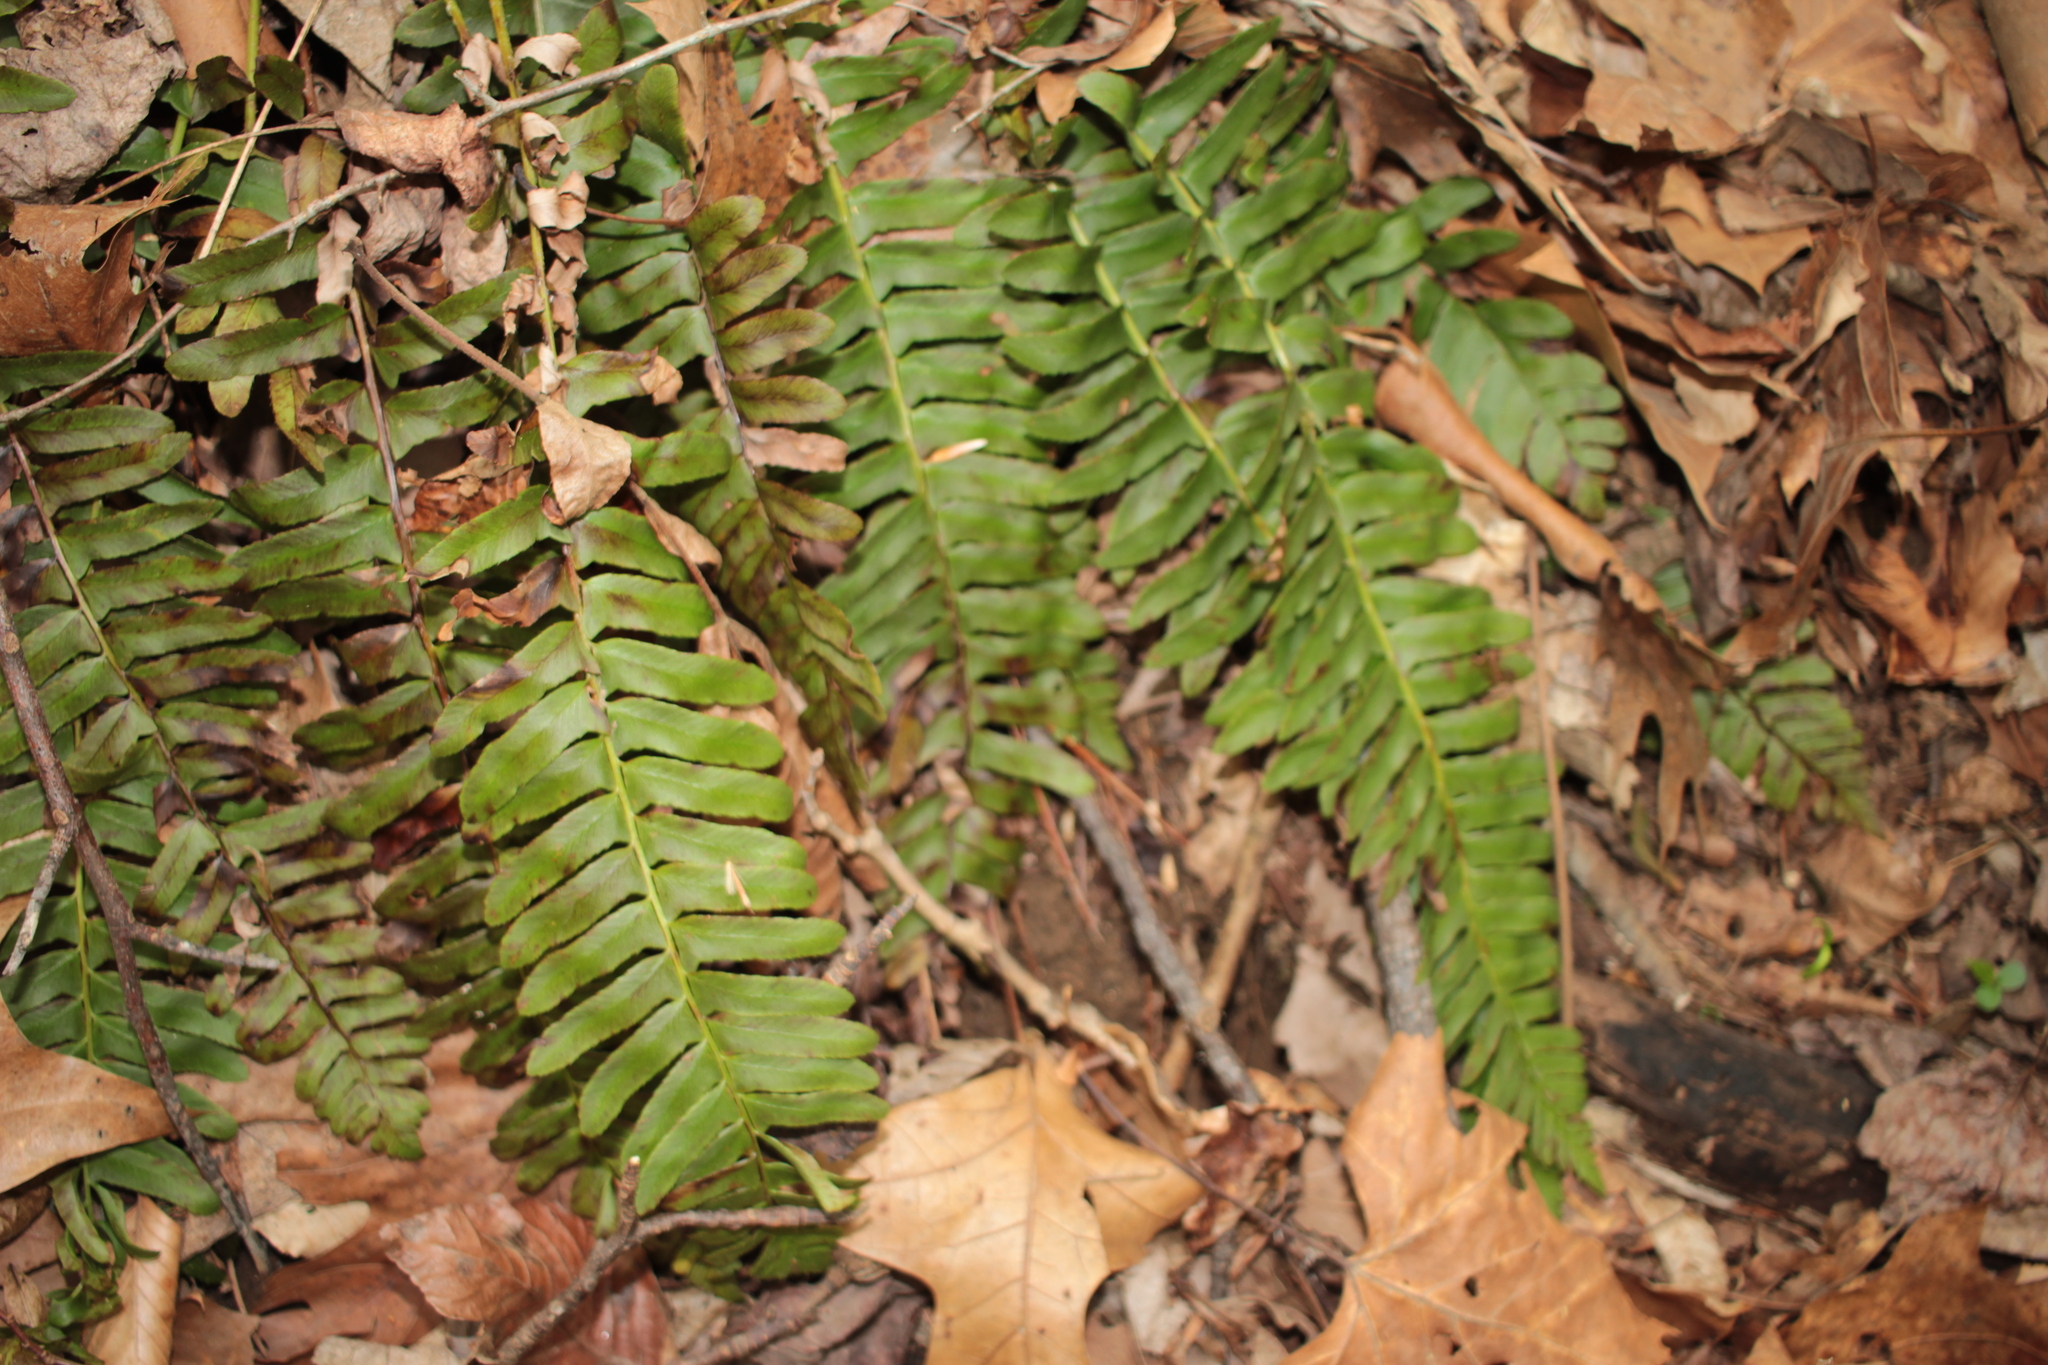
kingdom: Plantae
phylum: Tracheophyta
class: Polypodiopsida
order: Polypodiales
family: Dryopteridaceae
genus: Polystichum
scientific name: Polystichum acrostichoides
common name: Christmas fern
